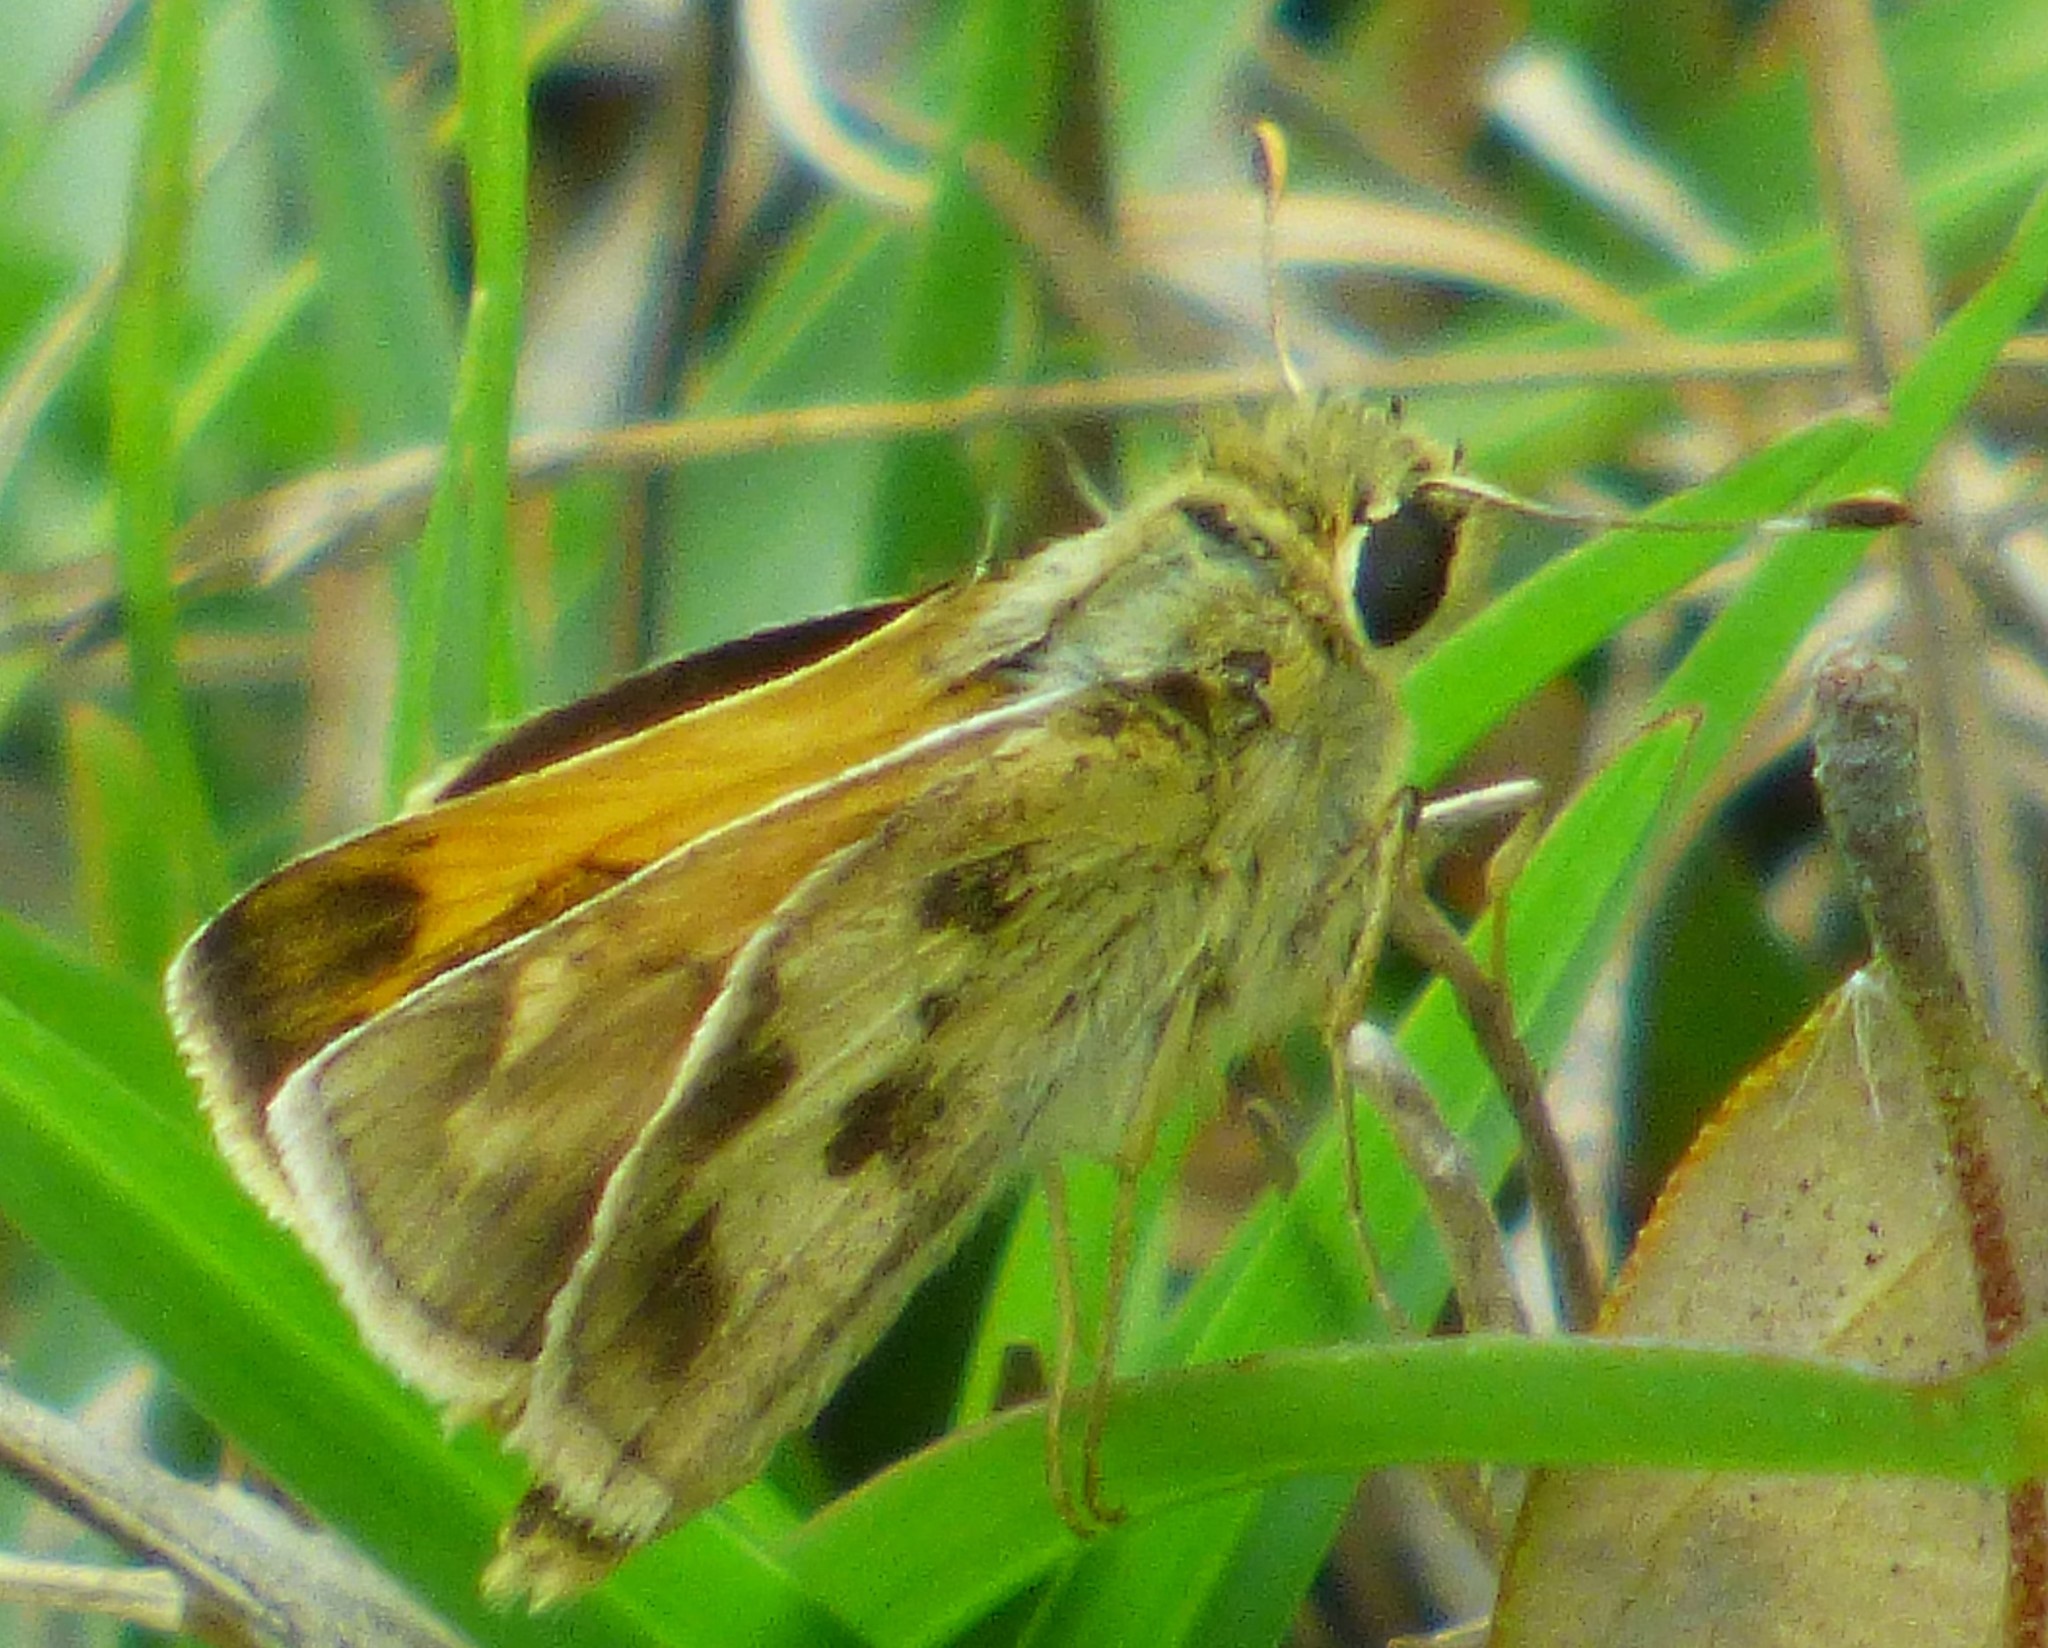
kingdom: Animalia
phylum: Arthropoda
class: Insecta
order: Lepidoptera
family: Hesperiidae
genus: Polites
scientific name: Polites vibex
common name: Whirlabout
